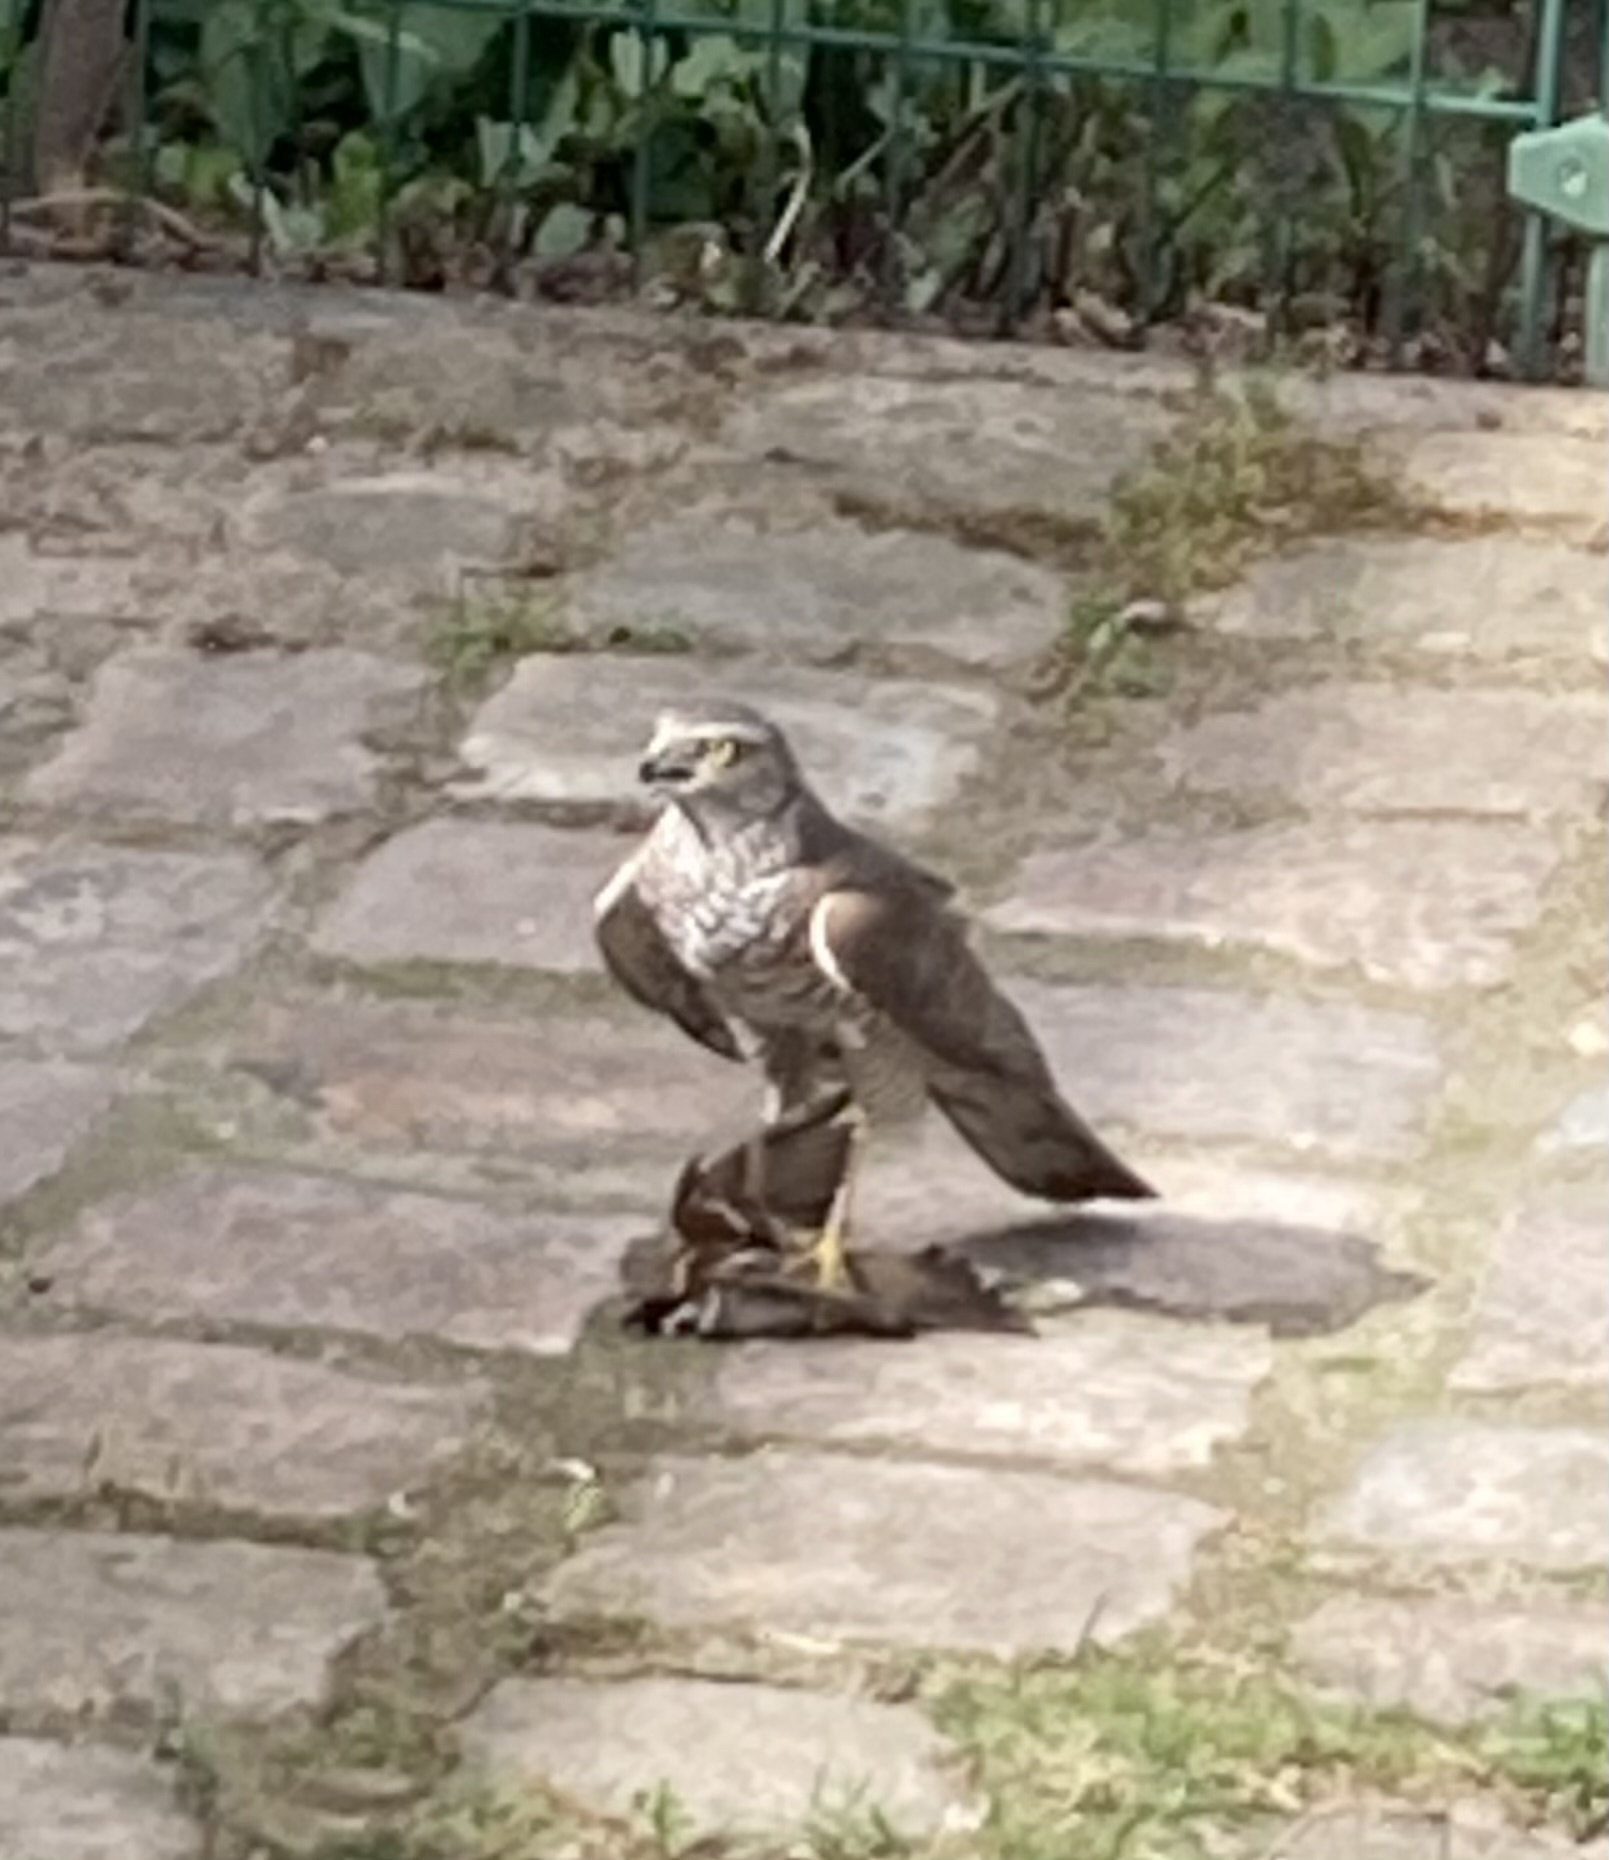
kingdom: Animalia
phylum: Chordata
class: Aves
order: Accipitriformes
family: Accipitridae
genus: Accipiter
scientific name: Accipiter nisus
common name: Eurasian sparrowhawk
